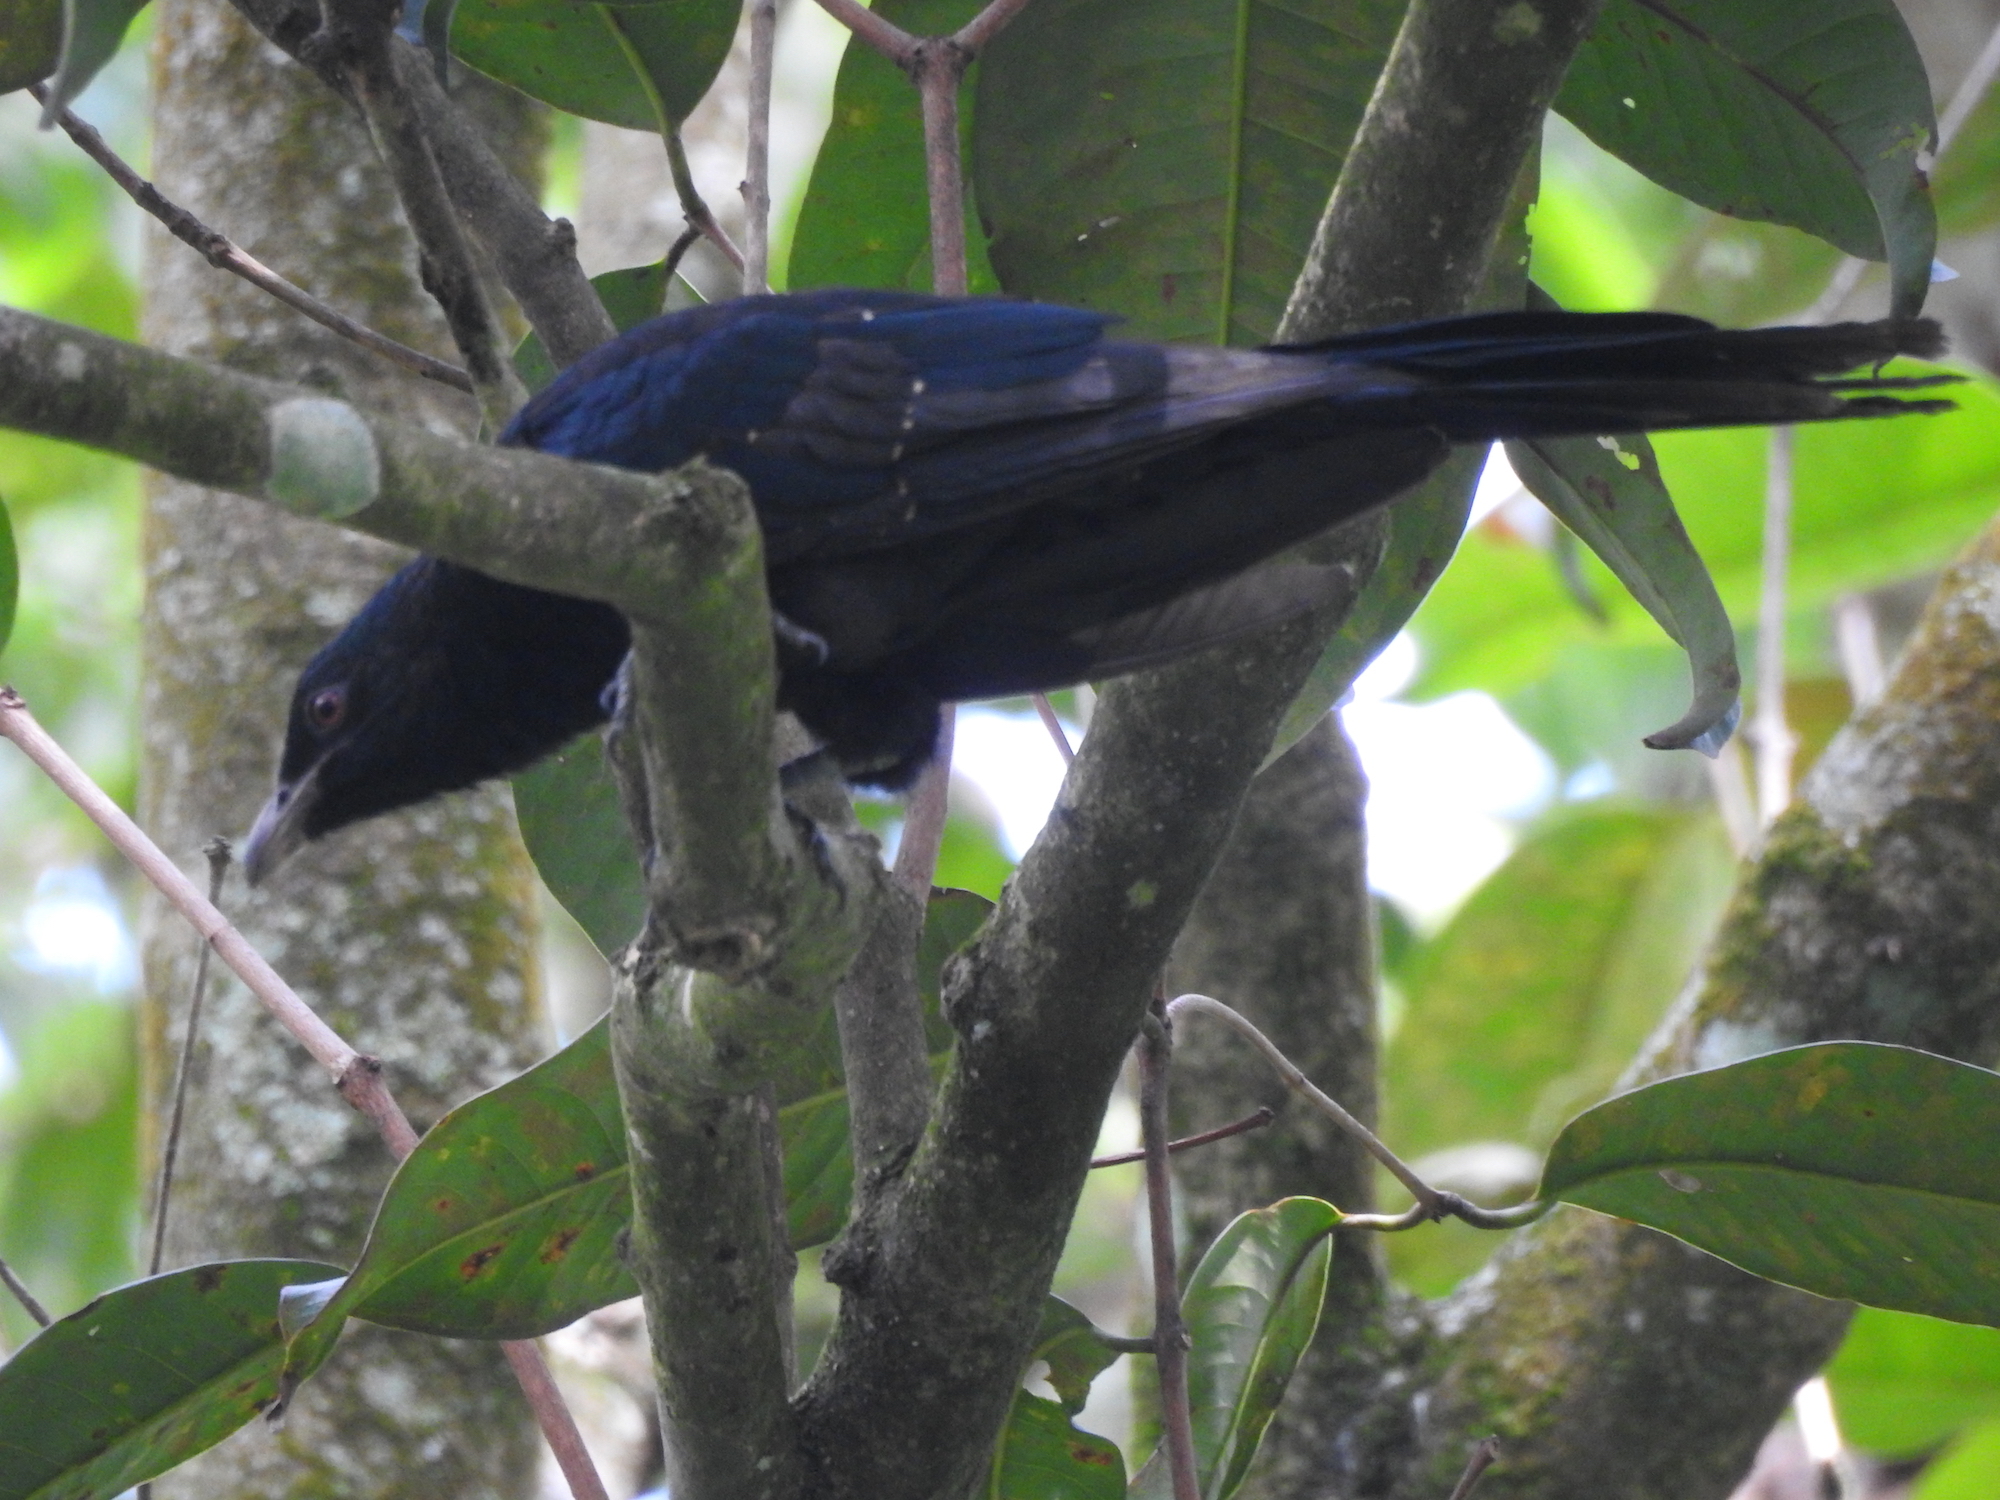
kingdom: Animalia
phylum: Chordata
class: Aves
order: Cuculiformes
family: Cuculidae
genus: Eudynamys
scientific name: Eudynamys scolopaceus
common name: Asian koel
